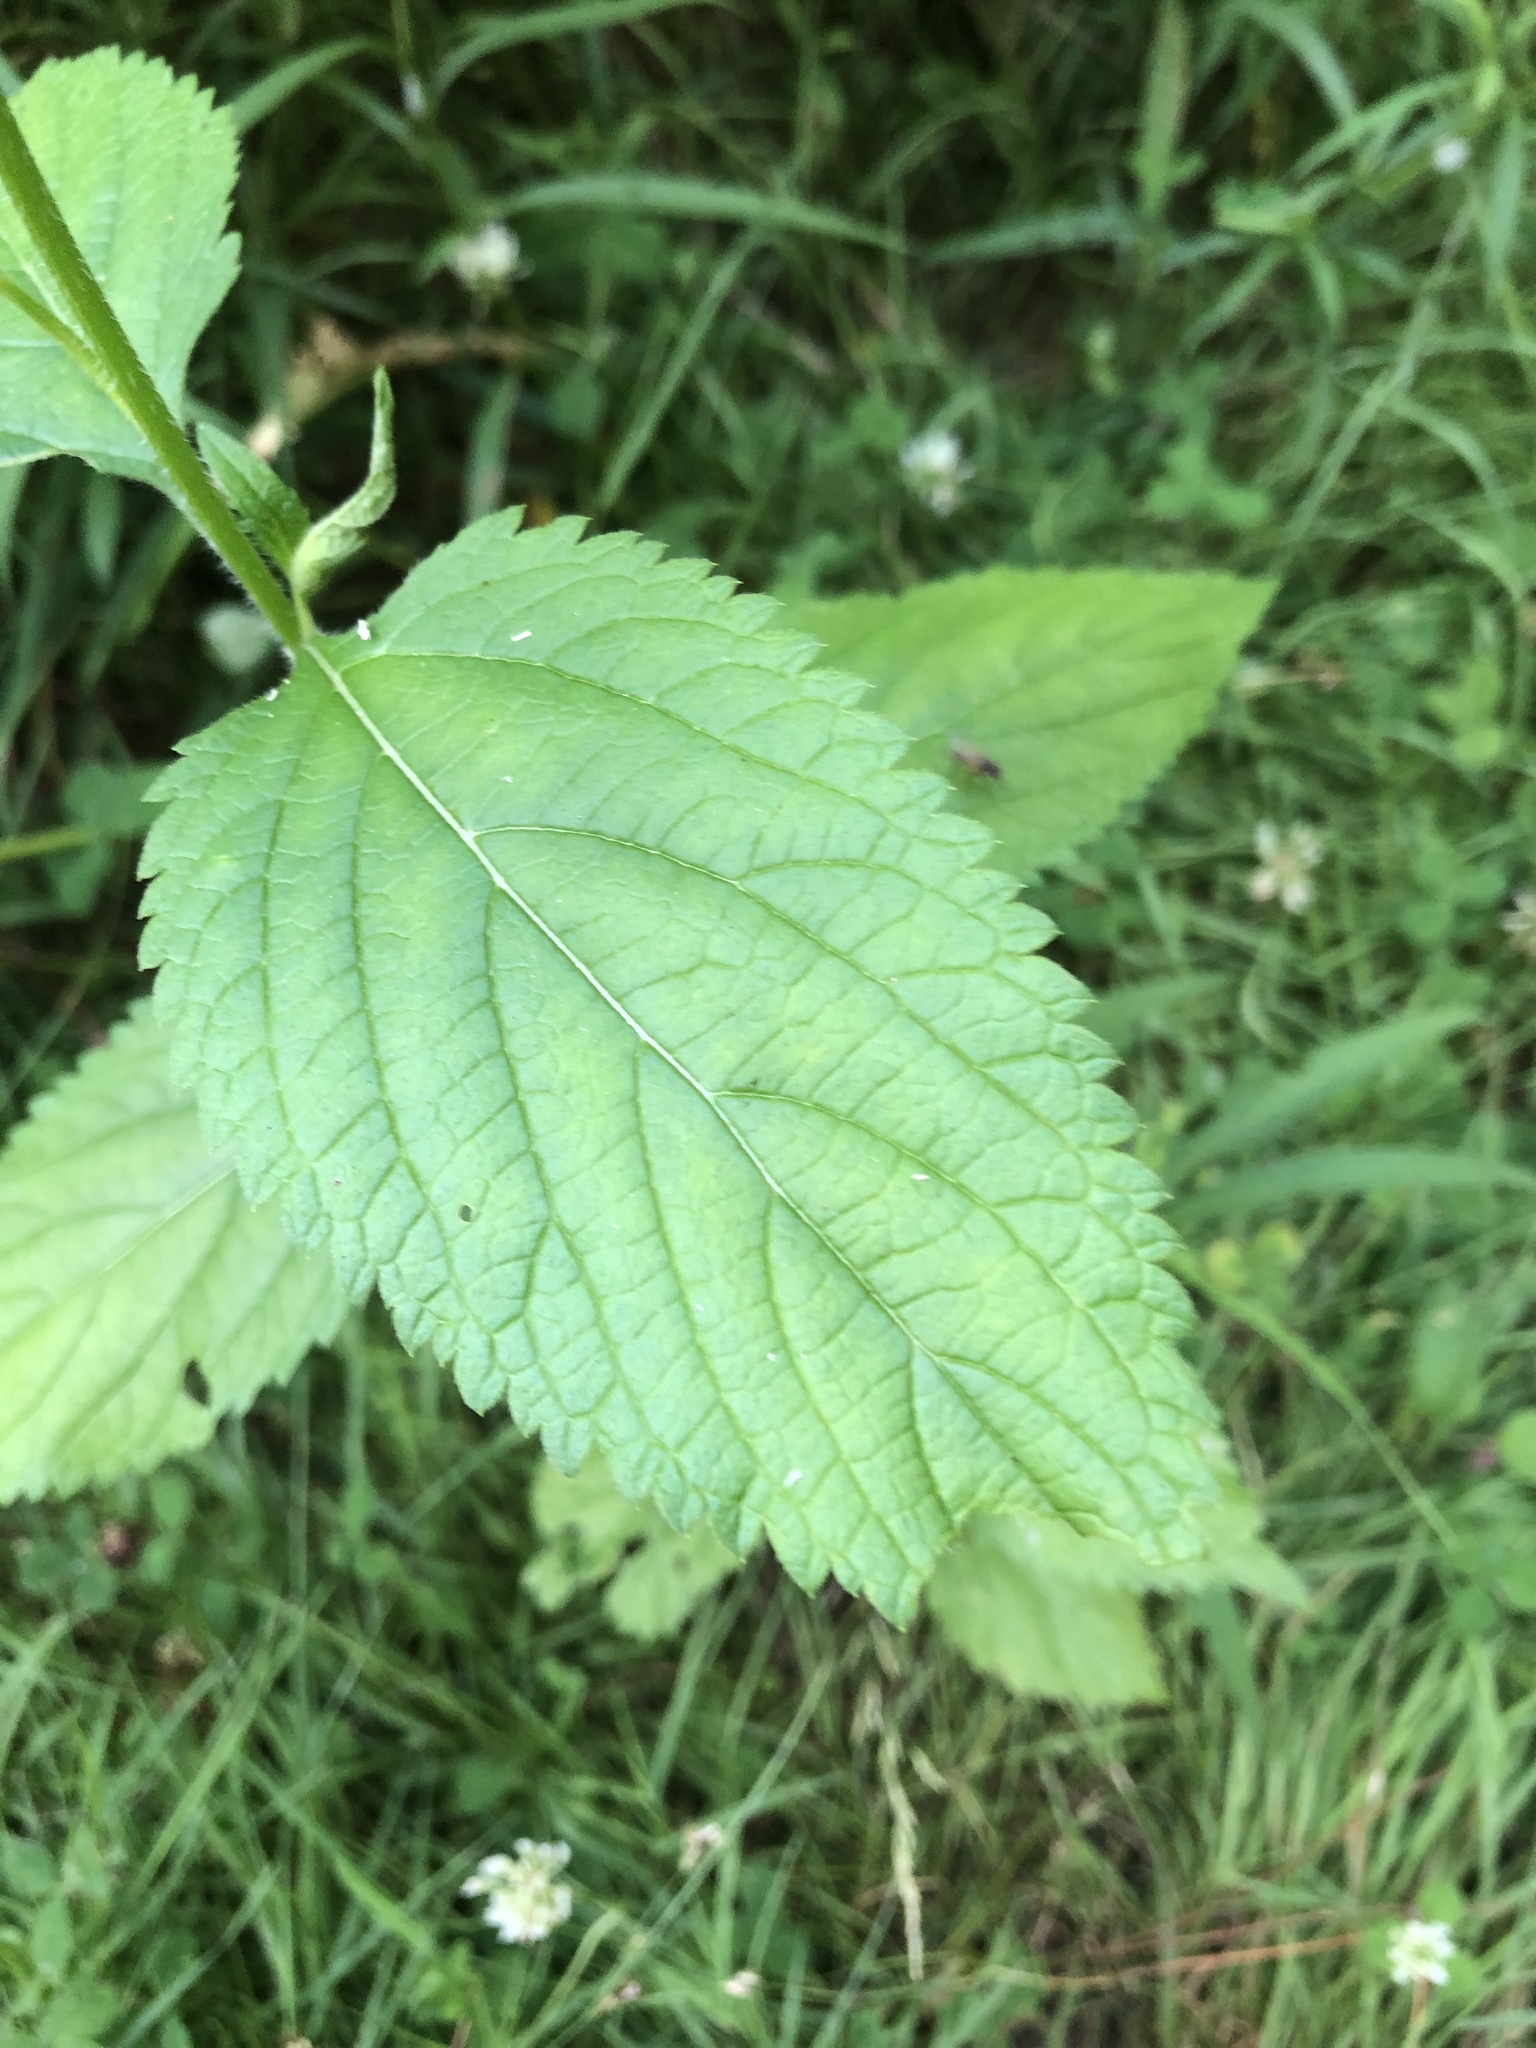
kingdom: Plantae
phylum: Tracheophyta
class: Magnoliopsida
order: Lamiales
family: Verbenaceae
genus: Verbena
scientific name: Verbena urticifolia
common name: Nettle-leaved vervain
